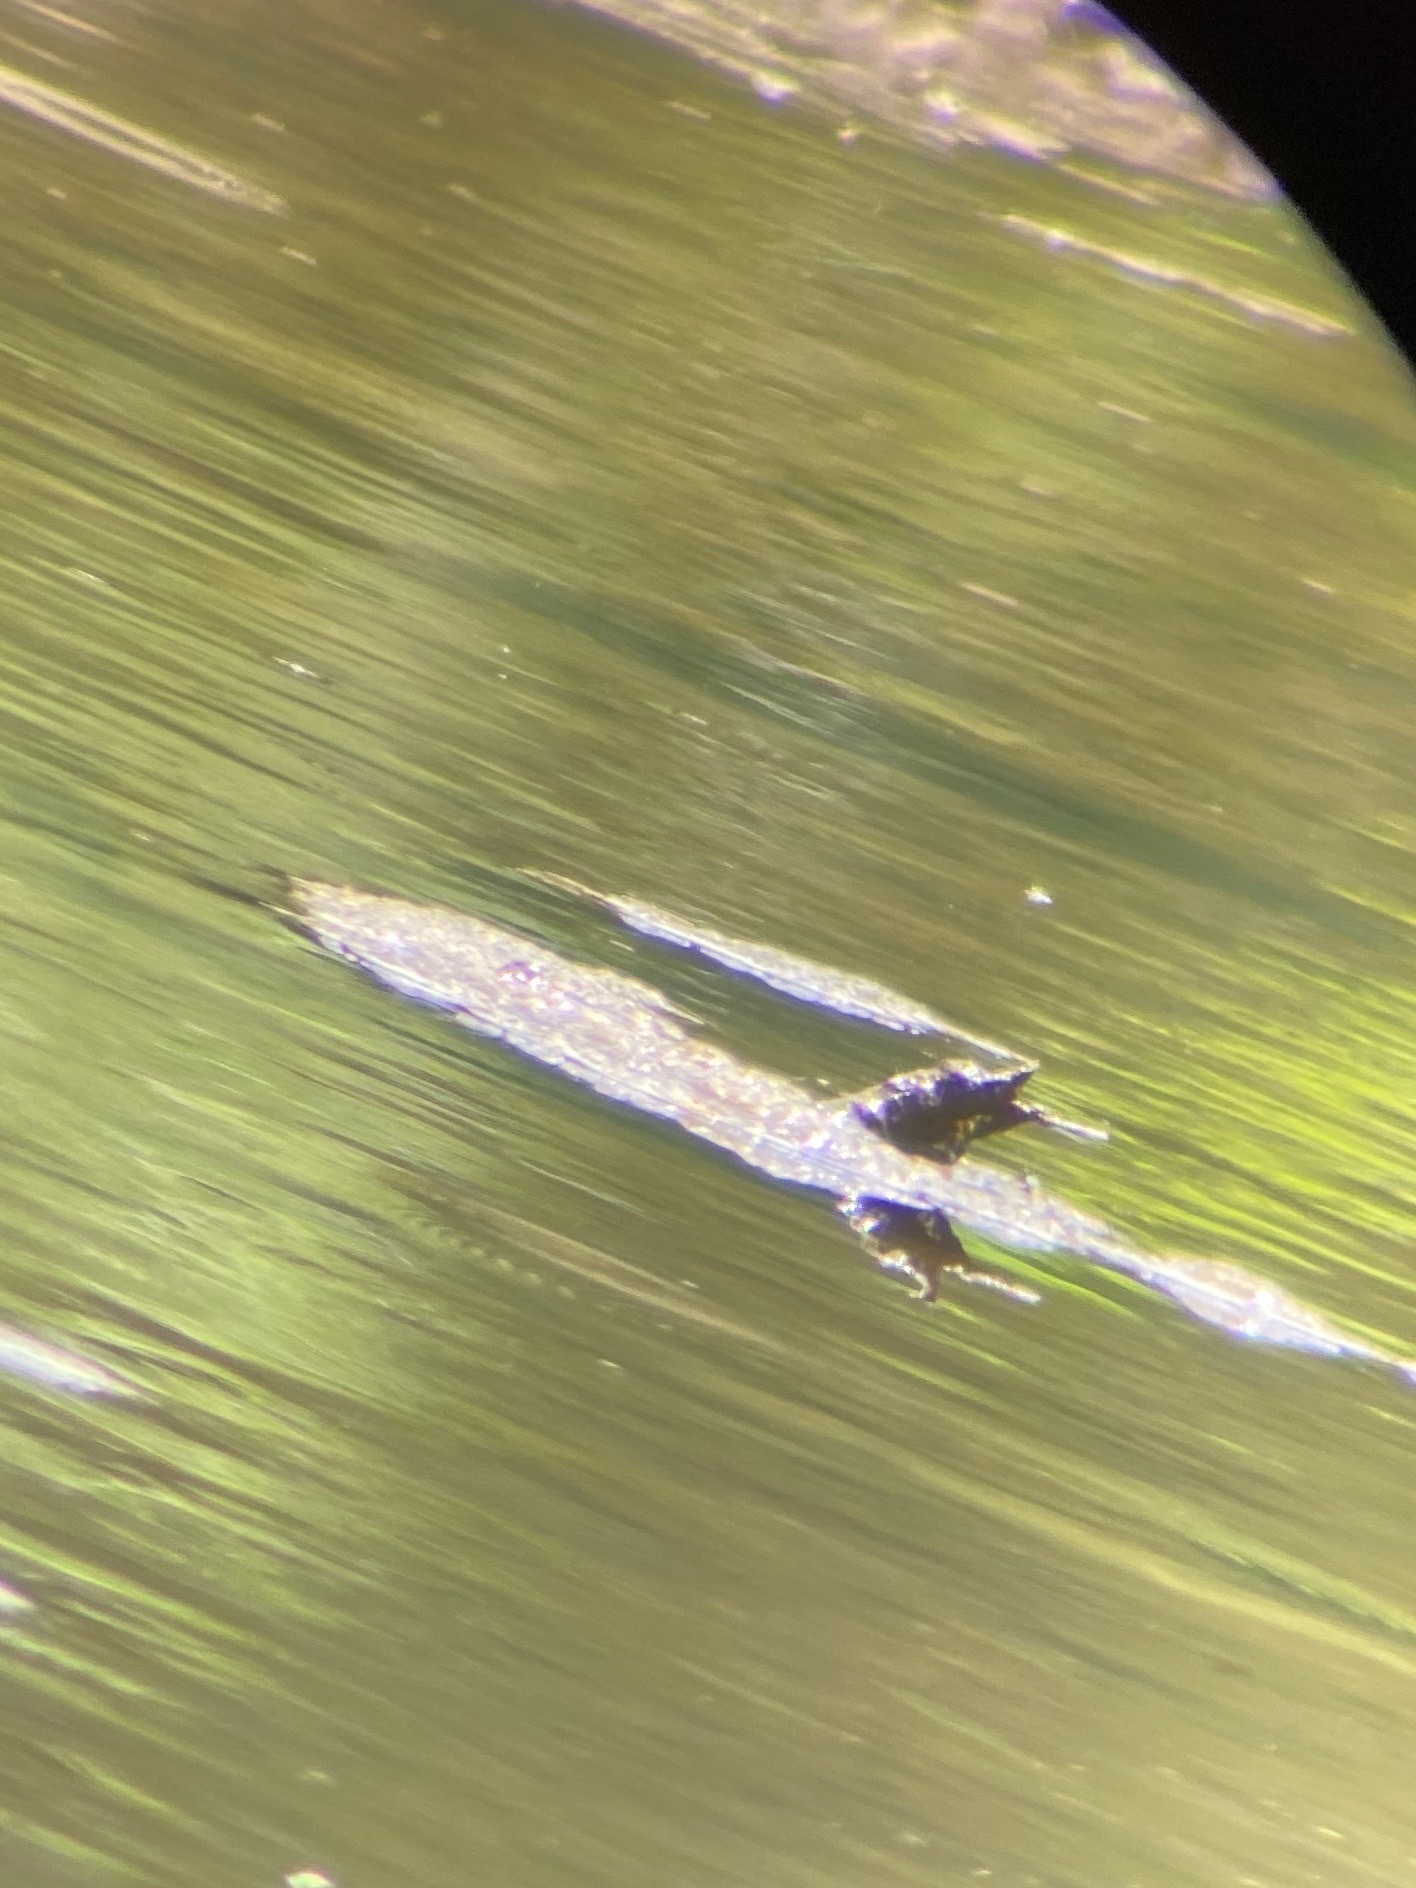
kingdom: Animalia
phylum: Chordata
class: Testudines
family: Trionychidae
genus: Apalone
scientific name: Apalone spinifera
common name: Spiny softshell turtle
